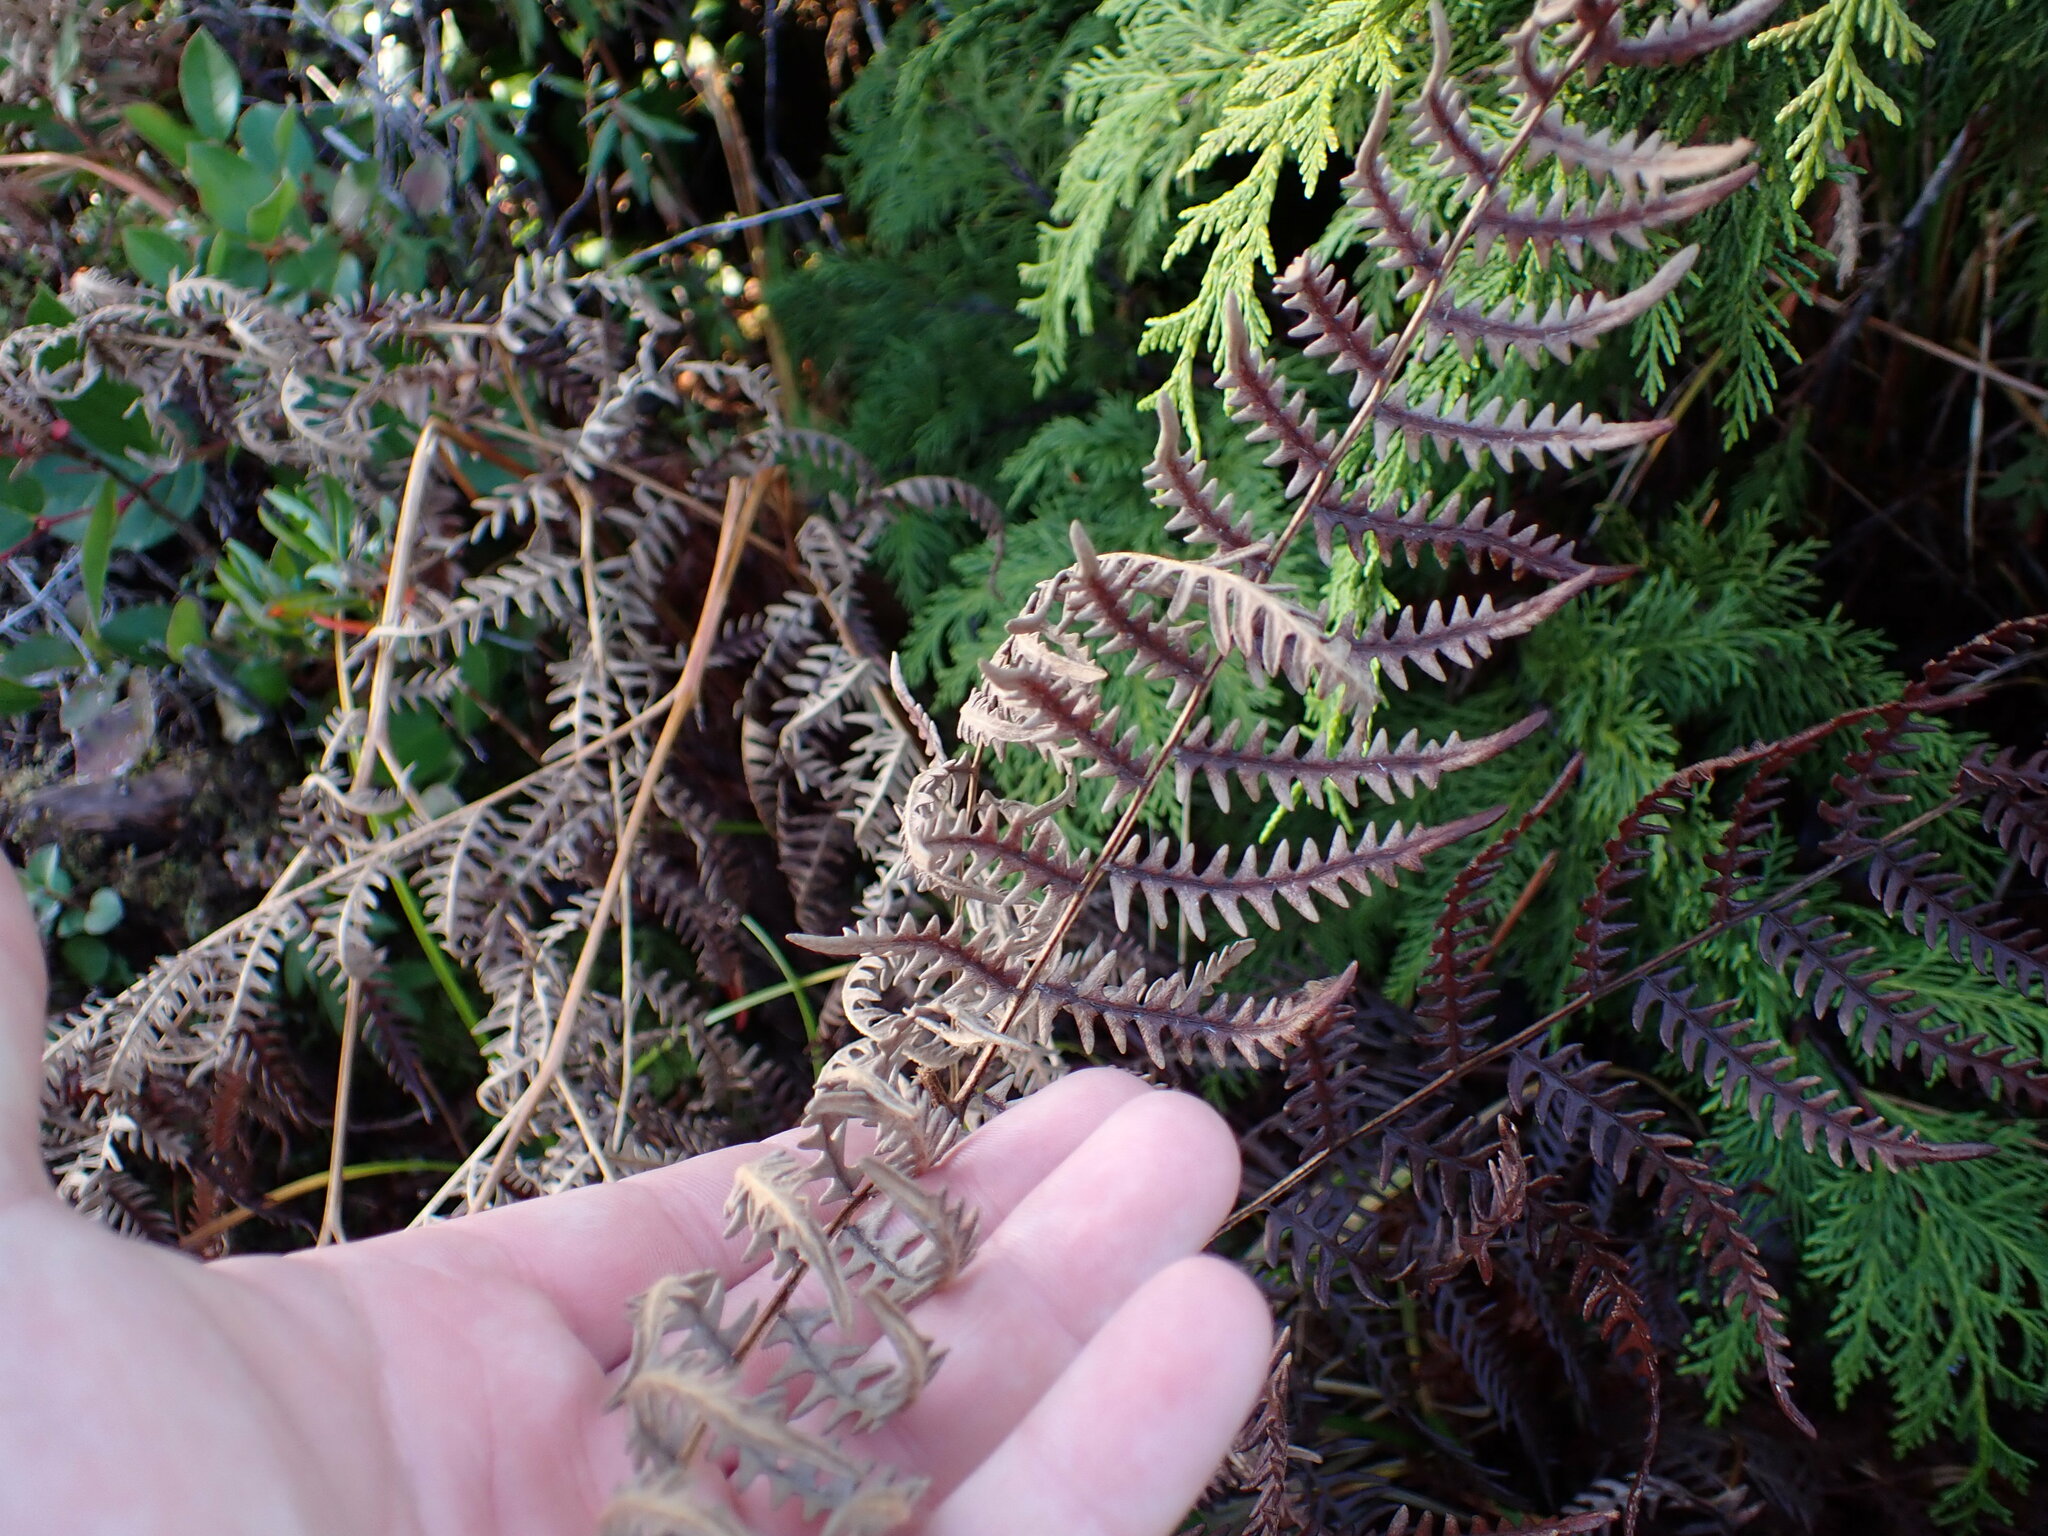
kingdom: Plantae
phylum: Tracheophyta
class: Polypodiopsida
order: Polypodiales
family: Dennstaedtiaceae
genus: Pteridium
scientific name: Pteridium aquilinum
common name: Bracken
